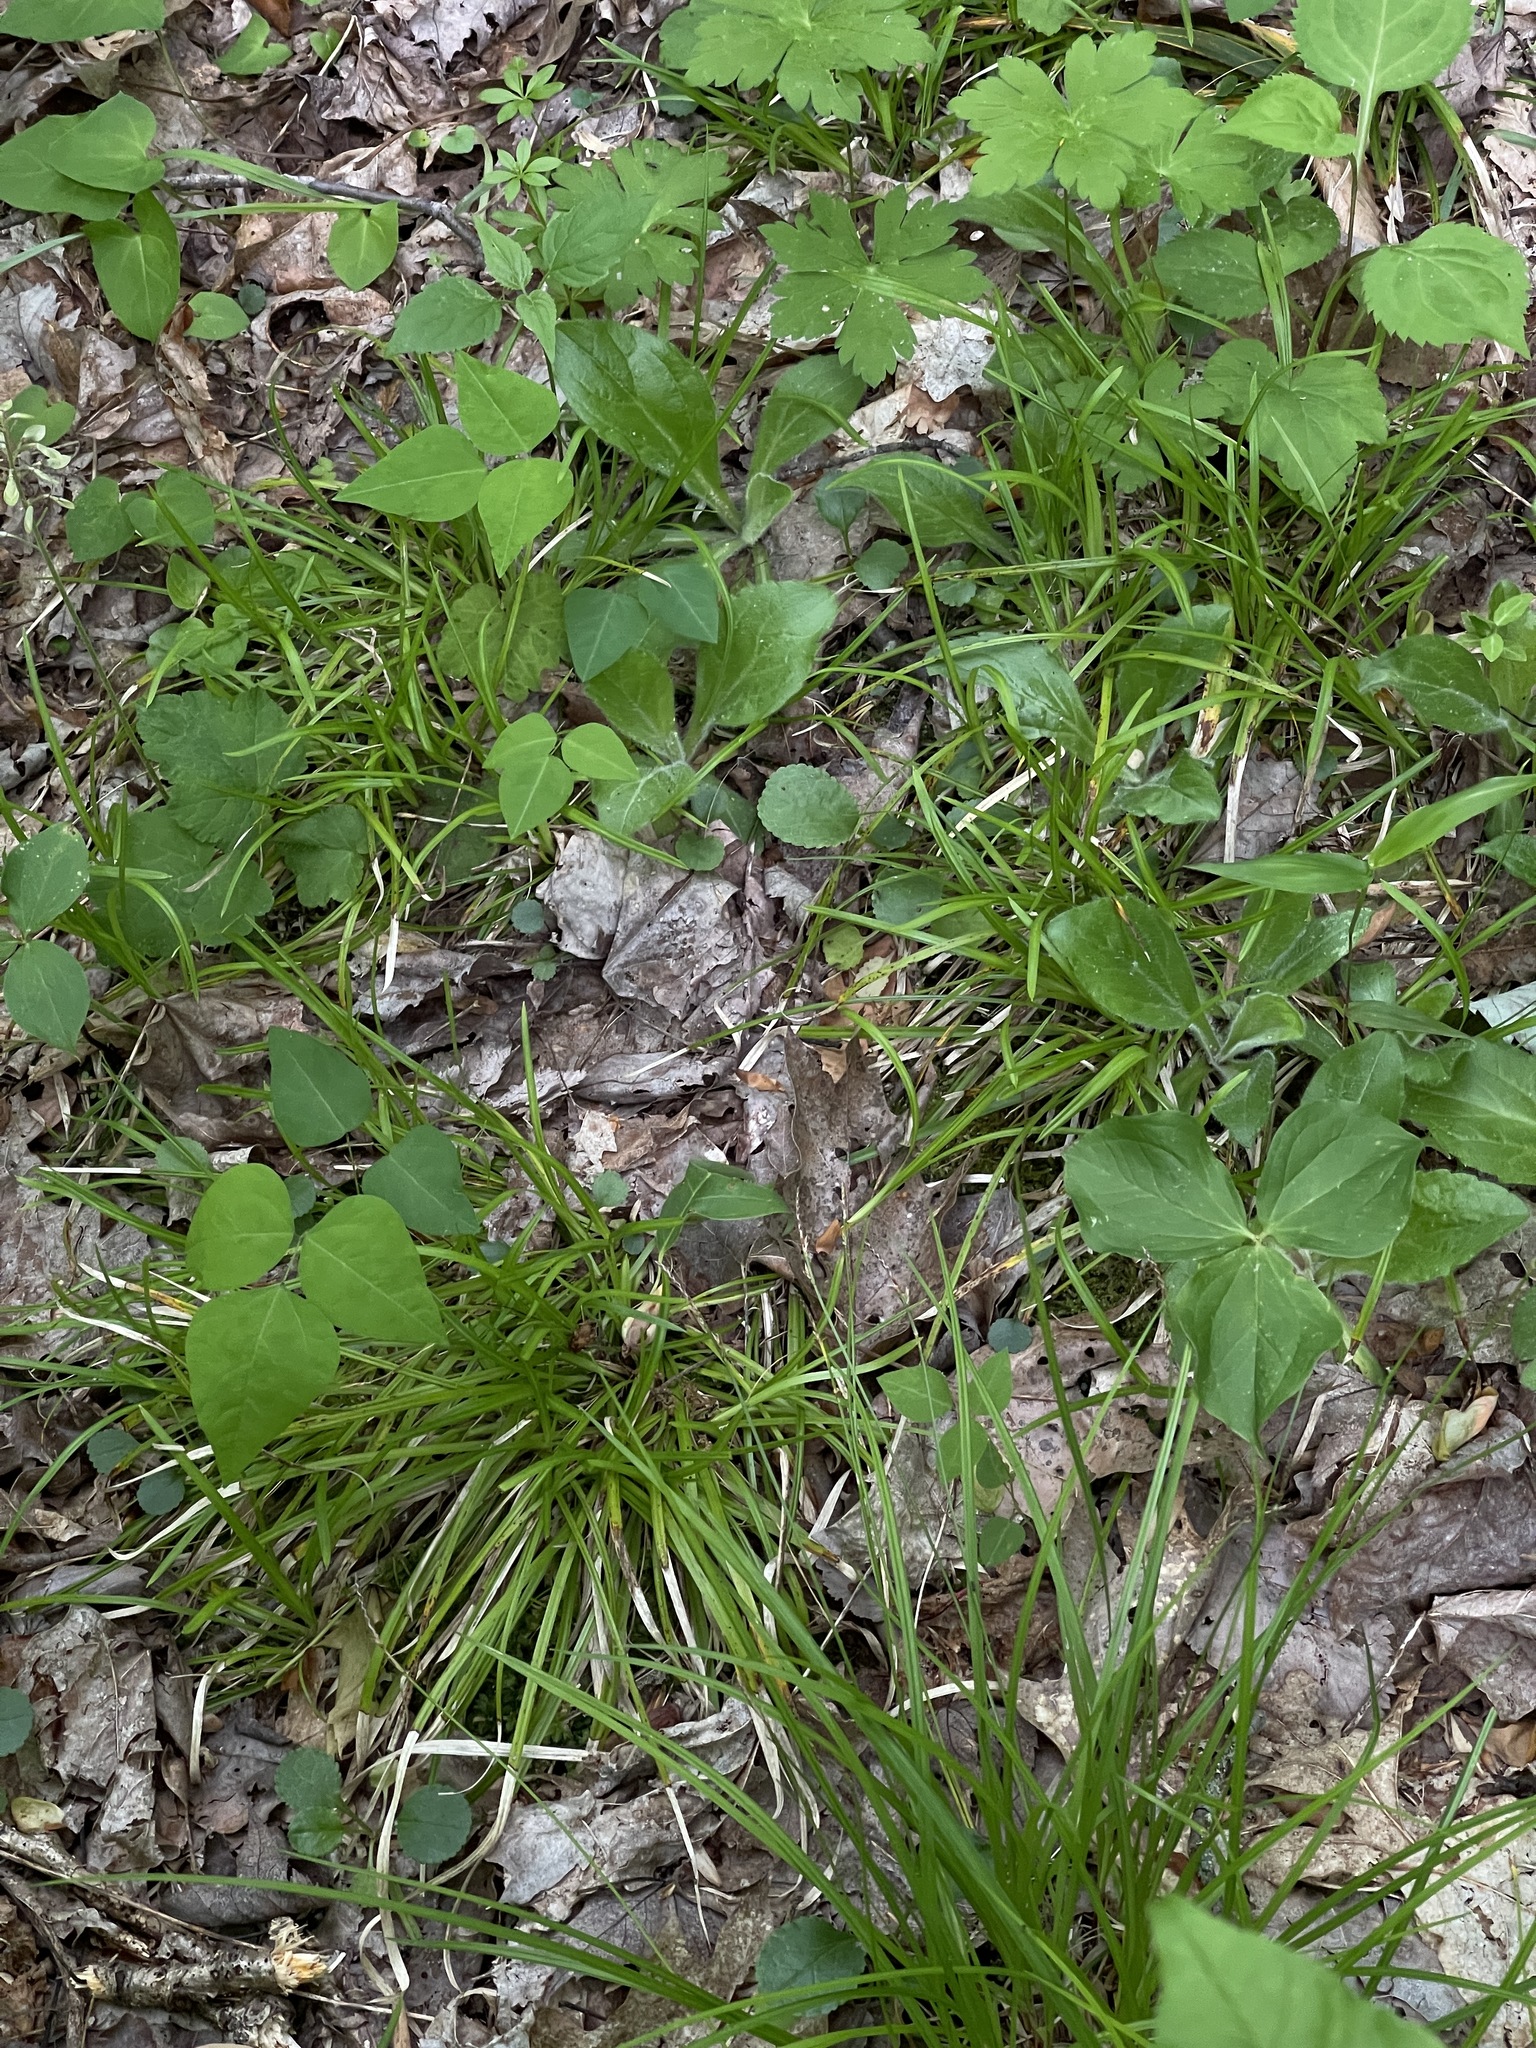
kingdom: Plantae
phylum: Tracheophyta
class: Magnoliopsida
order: Asterales
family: Asteraceae
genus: Erigeron
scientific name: Erigeron pulchellus
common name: Hairy fleabane
